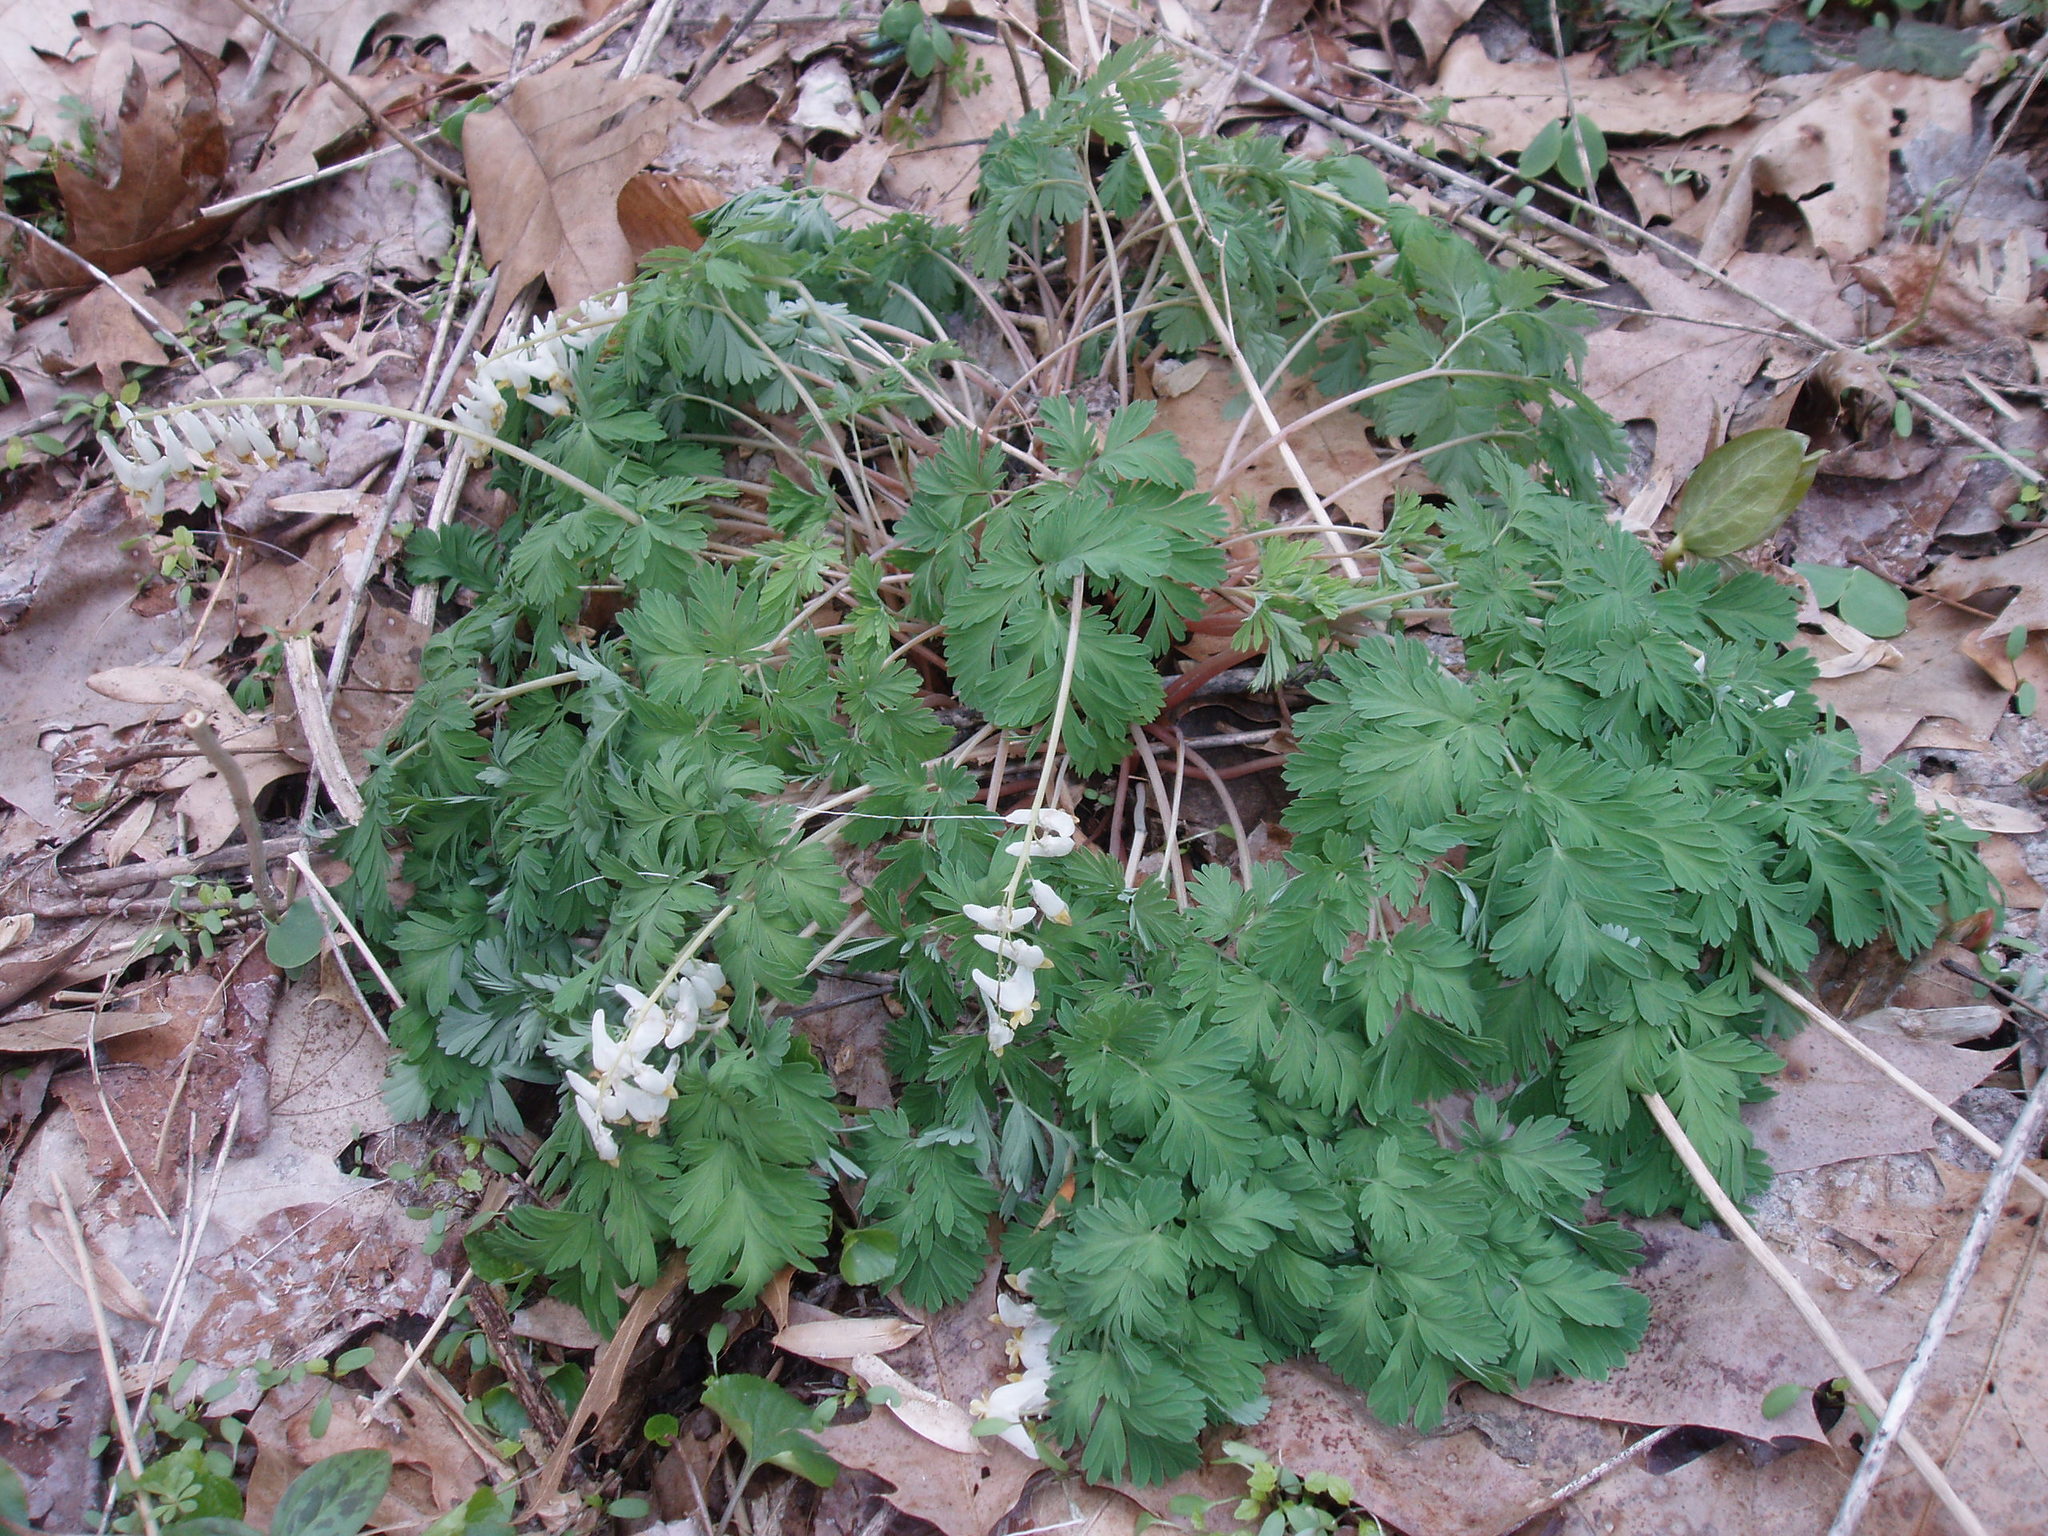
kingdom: Plantae
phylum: Tracheophyta
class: Magnoliopsida
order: Ranunculales
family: Papaveraceae
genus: Dicentra
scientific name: Dicentra cucullaria
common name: Dutchman's breeches
